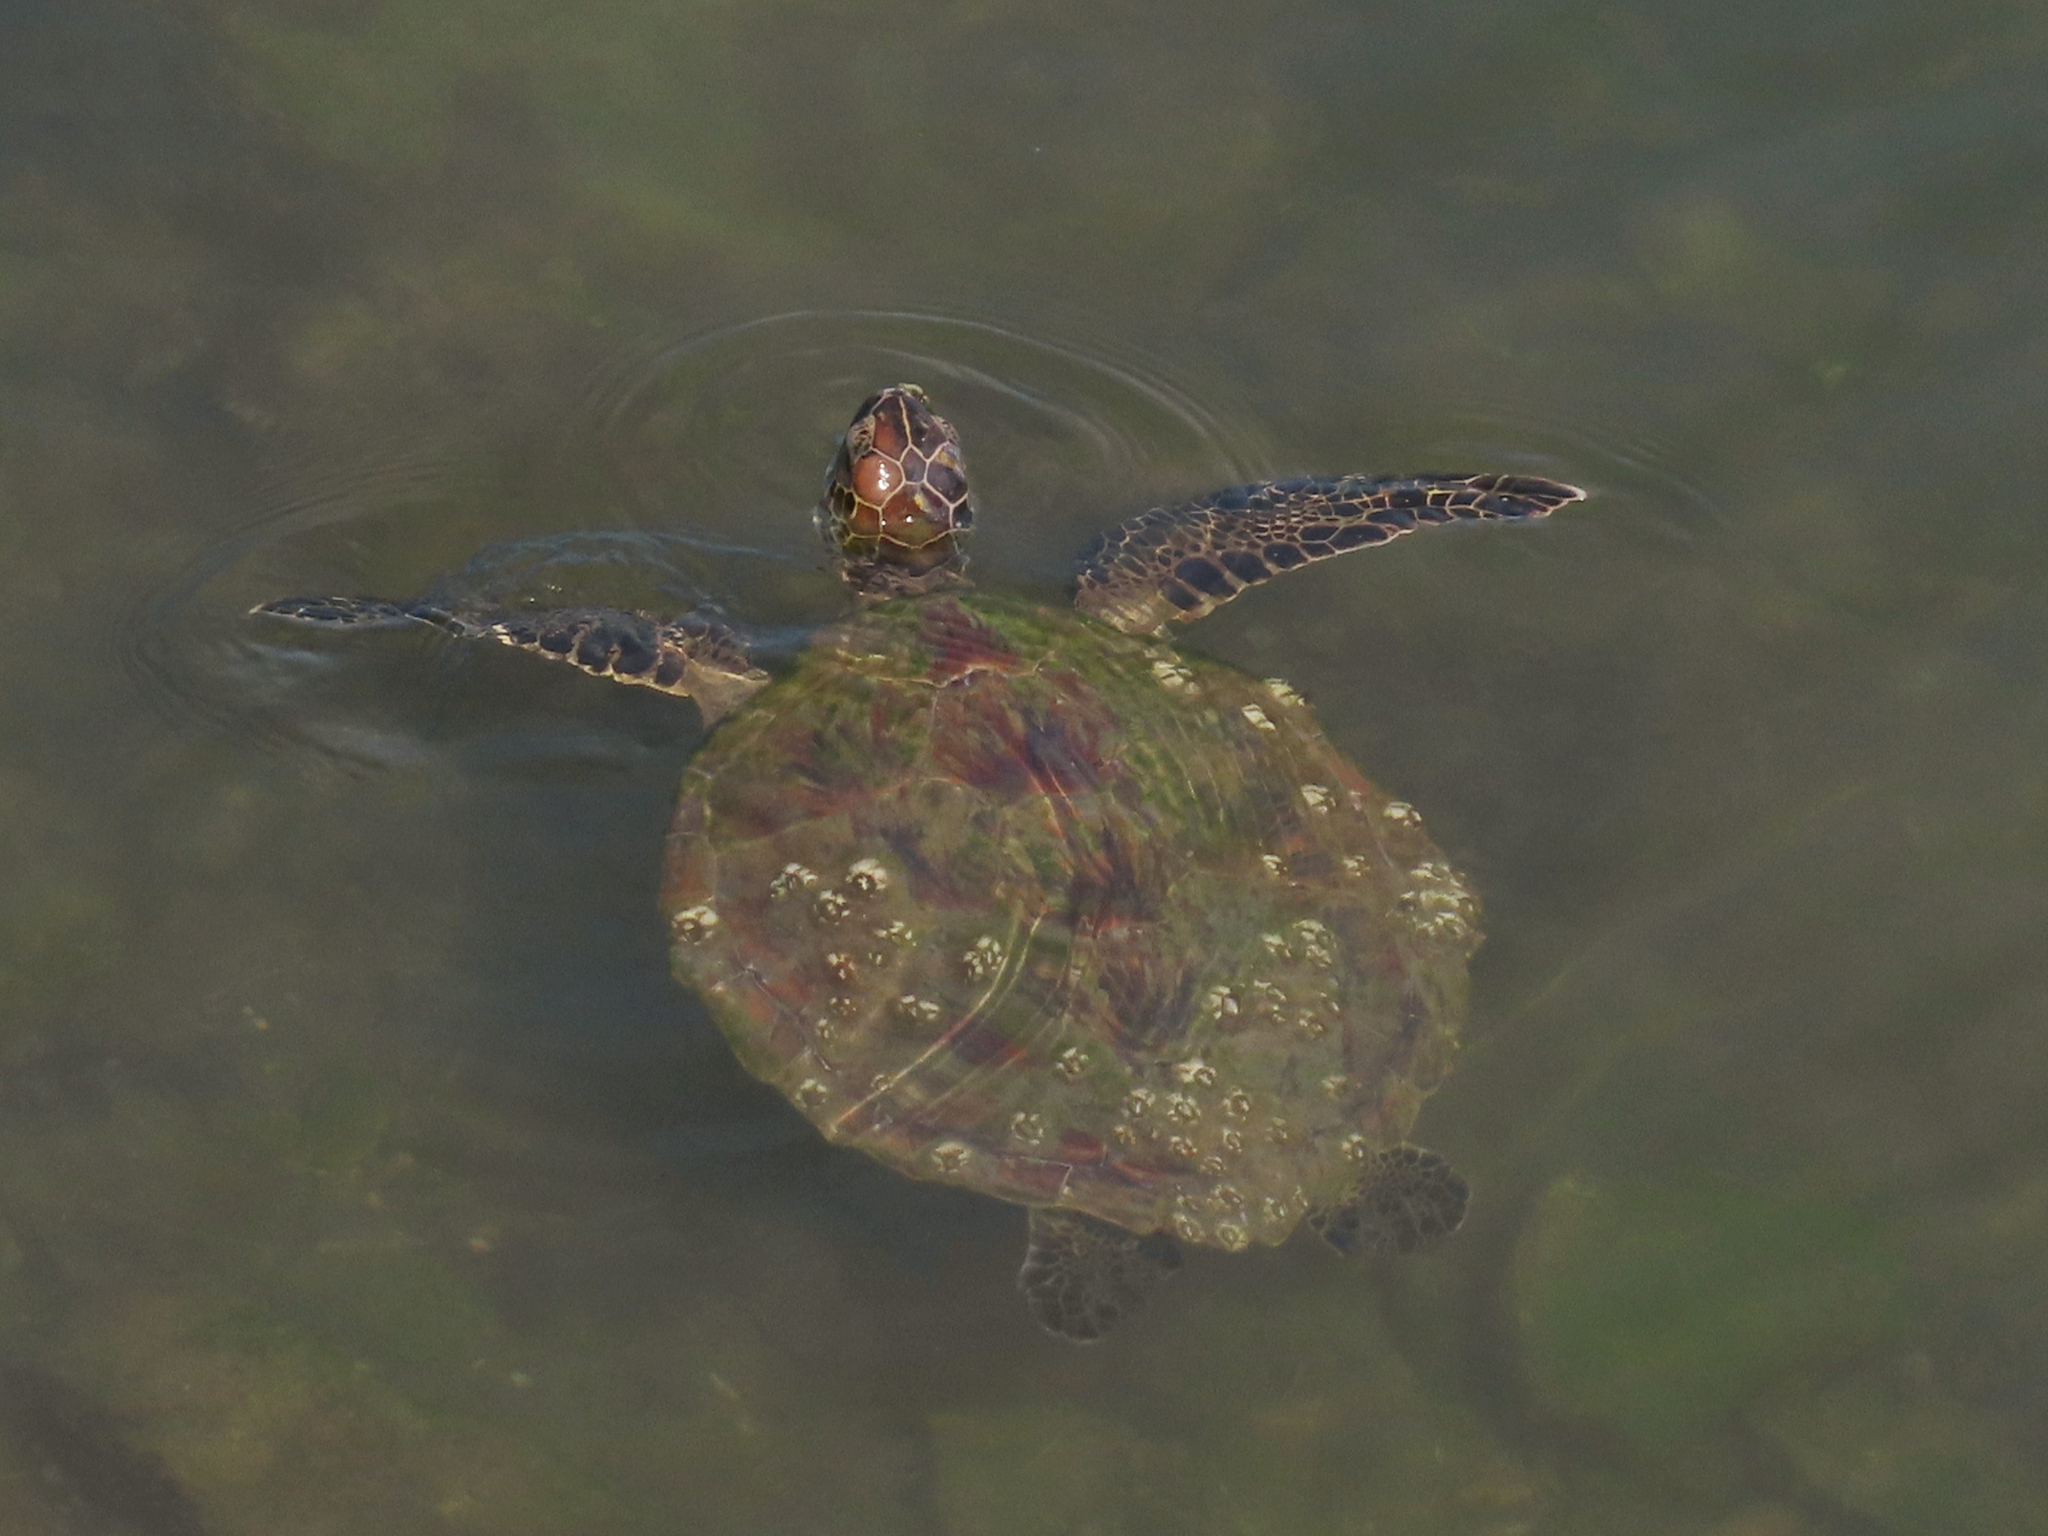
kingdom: Animalia
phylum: Chordata
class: Testudines
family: Cheloniidae
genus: Chelonia
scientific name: Chelonia mydas
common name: Green turtle
